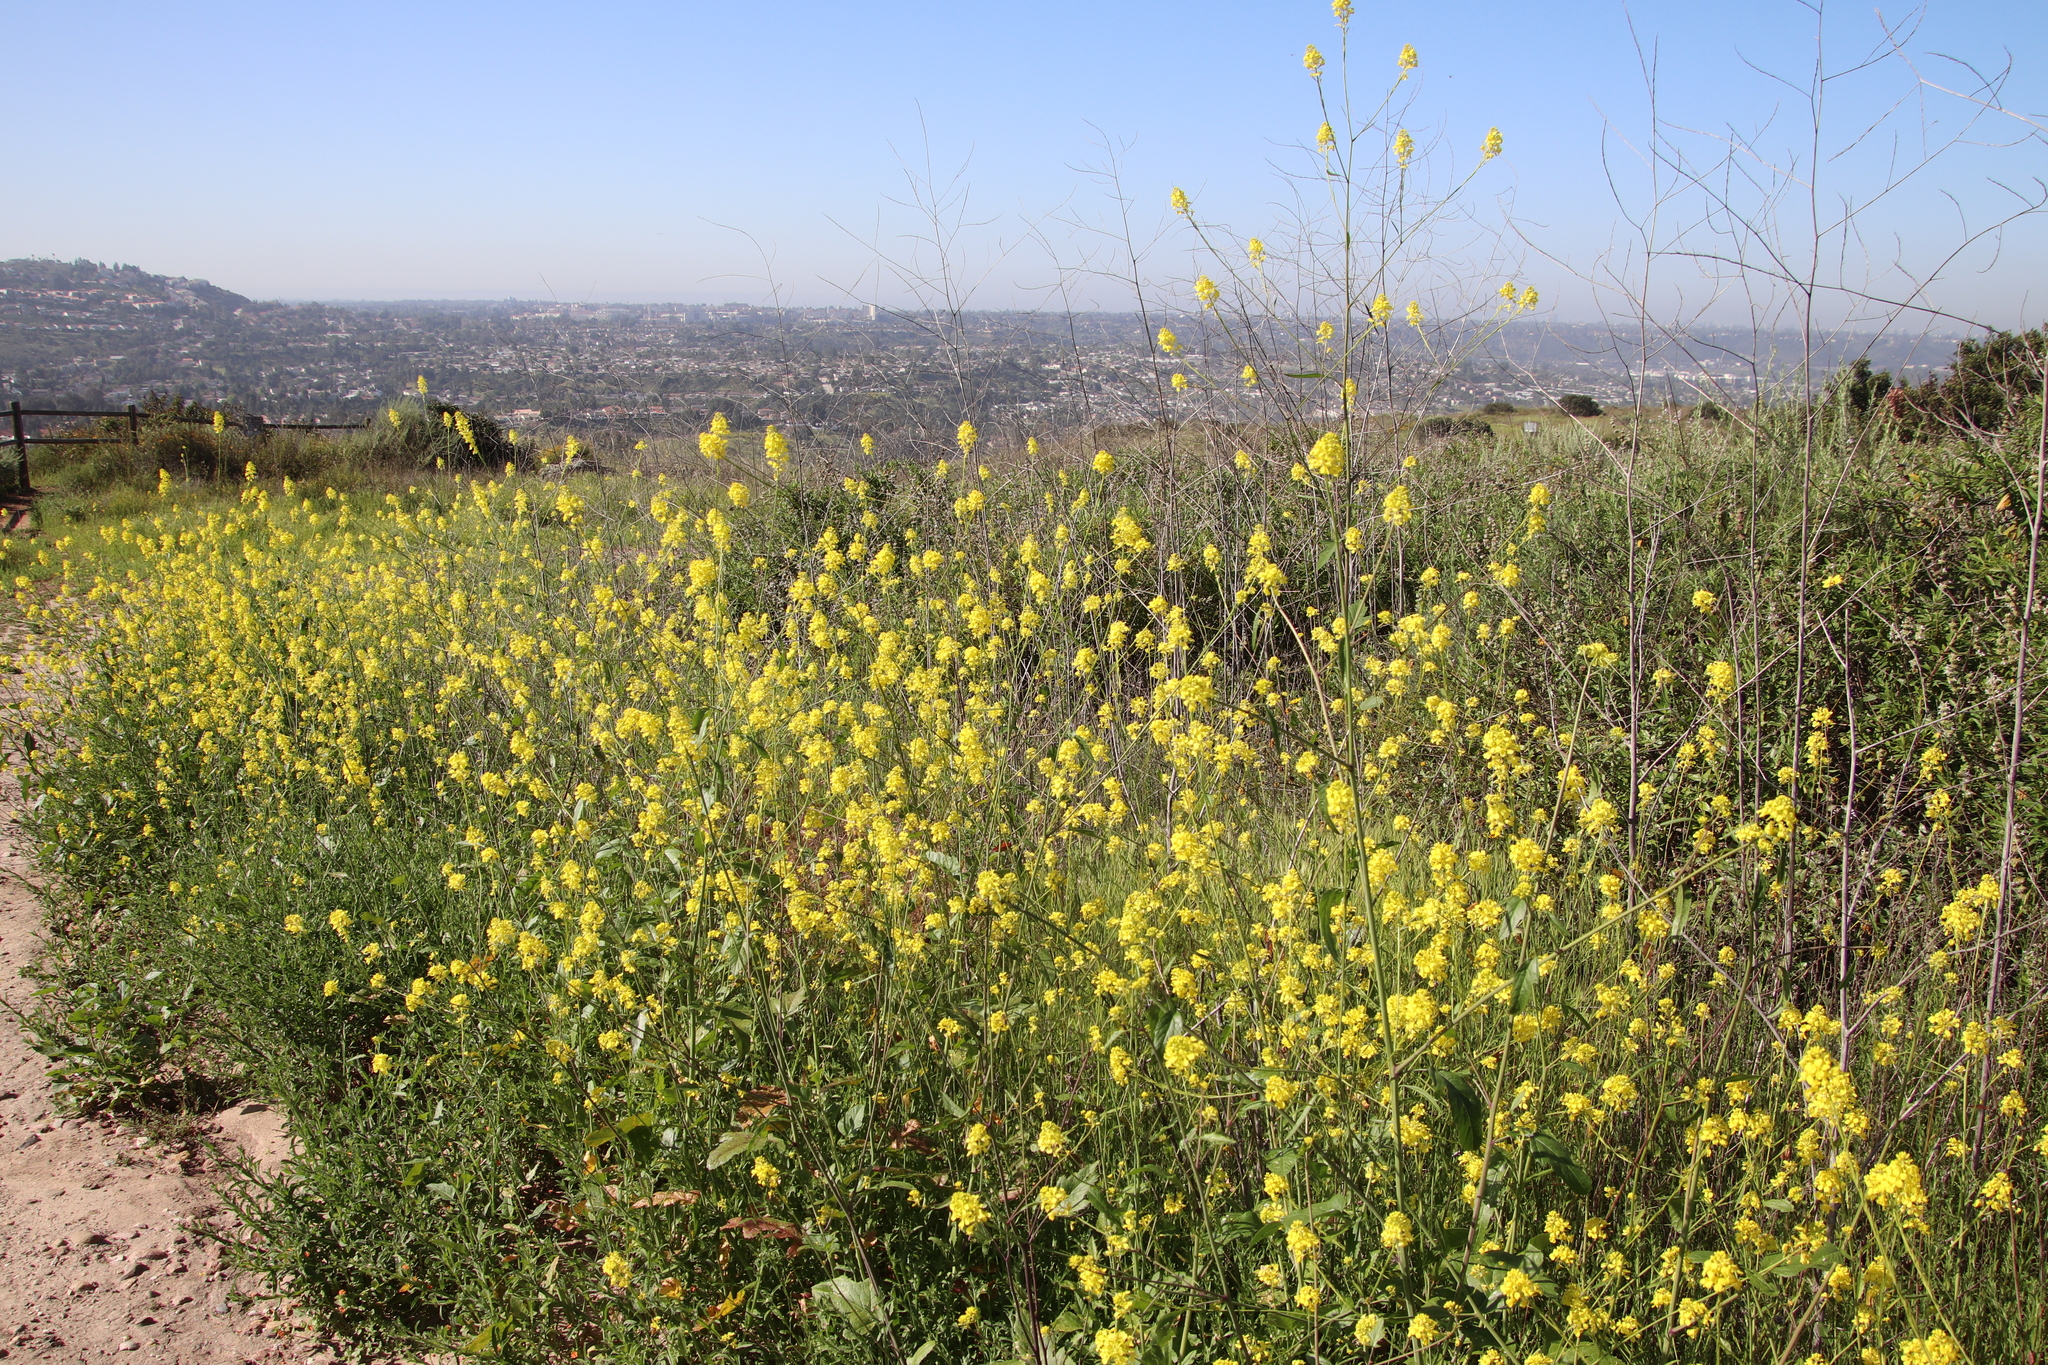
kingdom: Plantae
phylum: Tracheophyta
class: Magnoliopsida
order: Brassicales
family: Brassicaceae
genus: Brassica
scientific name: Brassica nigra
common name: Black mustard
